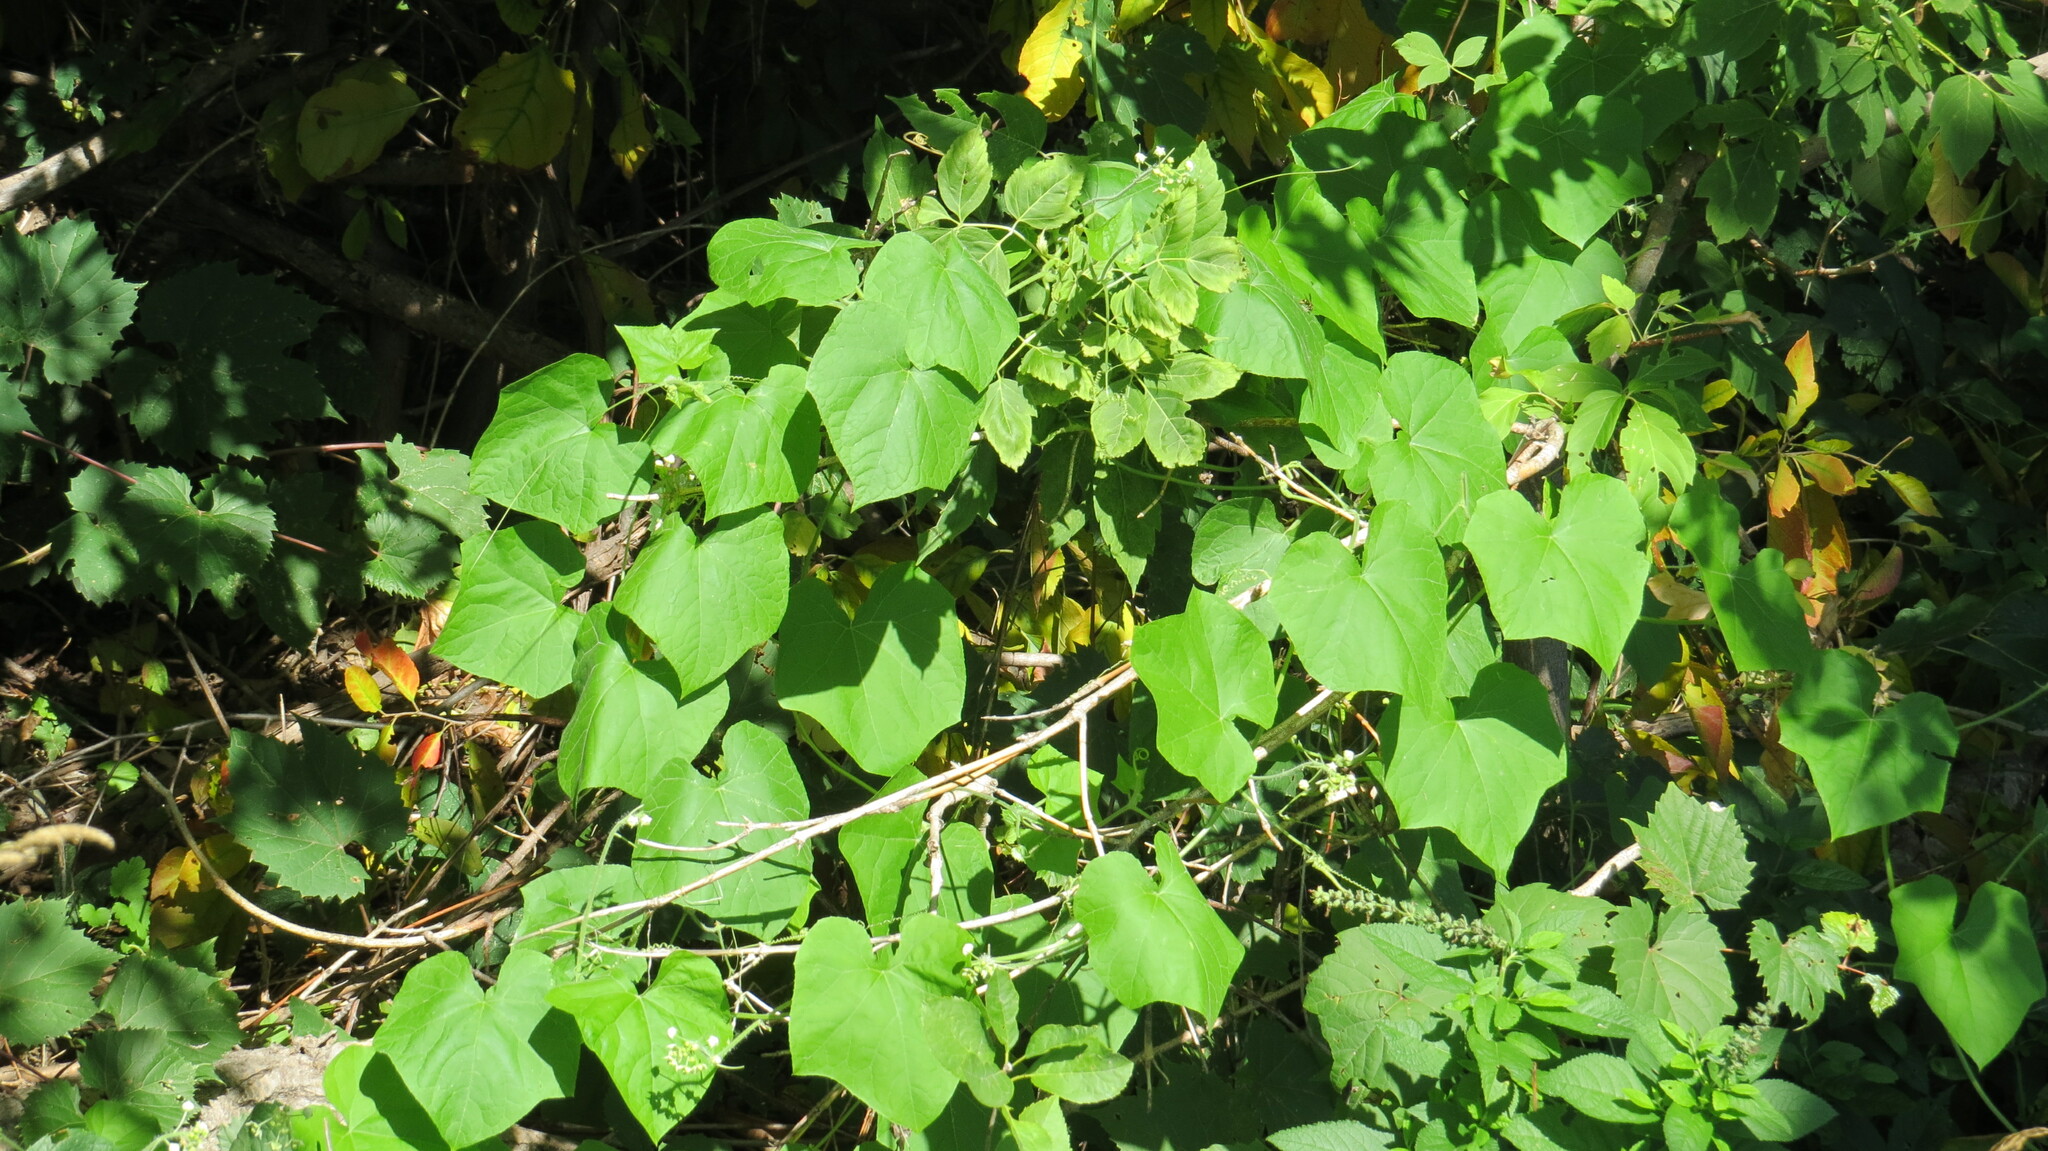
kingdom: Plantae
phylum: Tracheophyta
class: Magnoliopsida
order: Cucurbitales
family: Cucurbitaceae
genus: Sicyos
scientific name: Sicyos angulatus
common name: Angled burr cucumber
